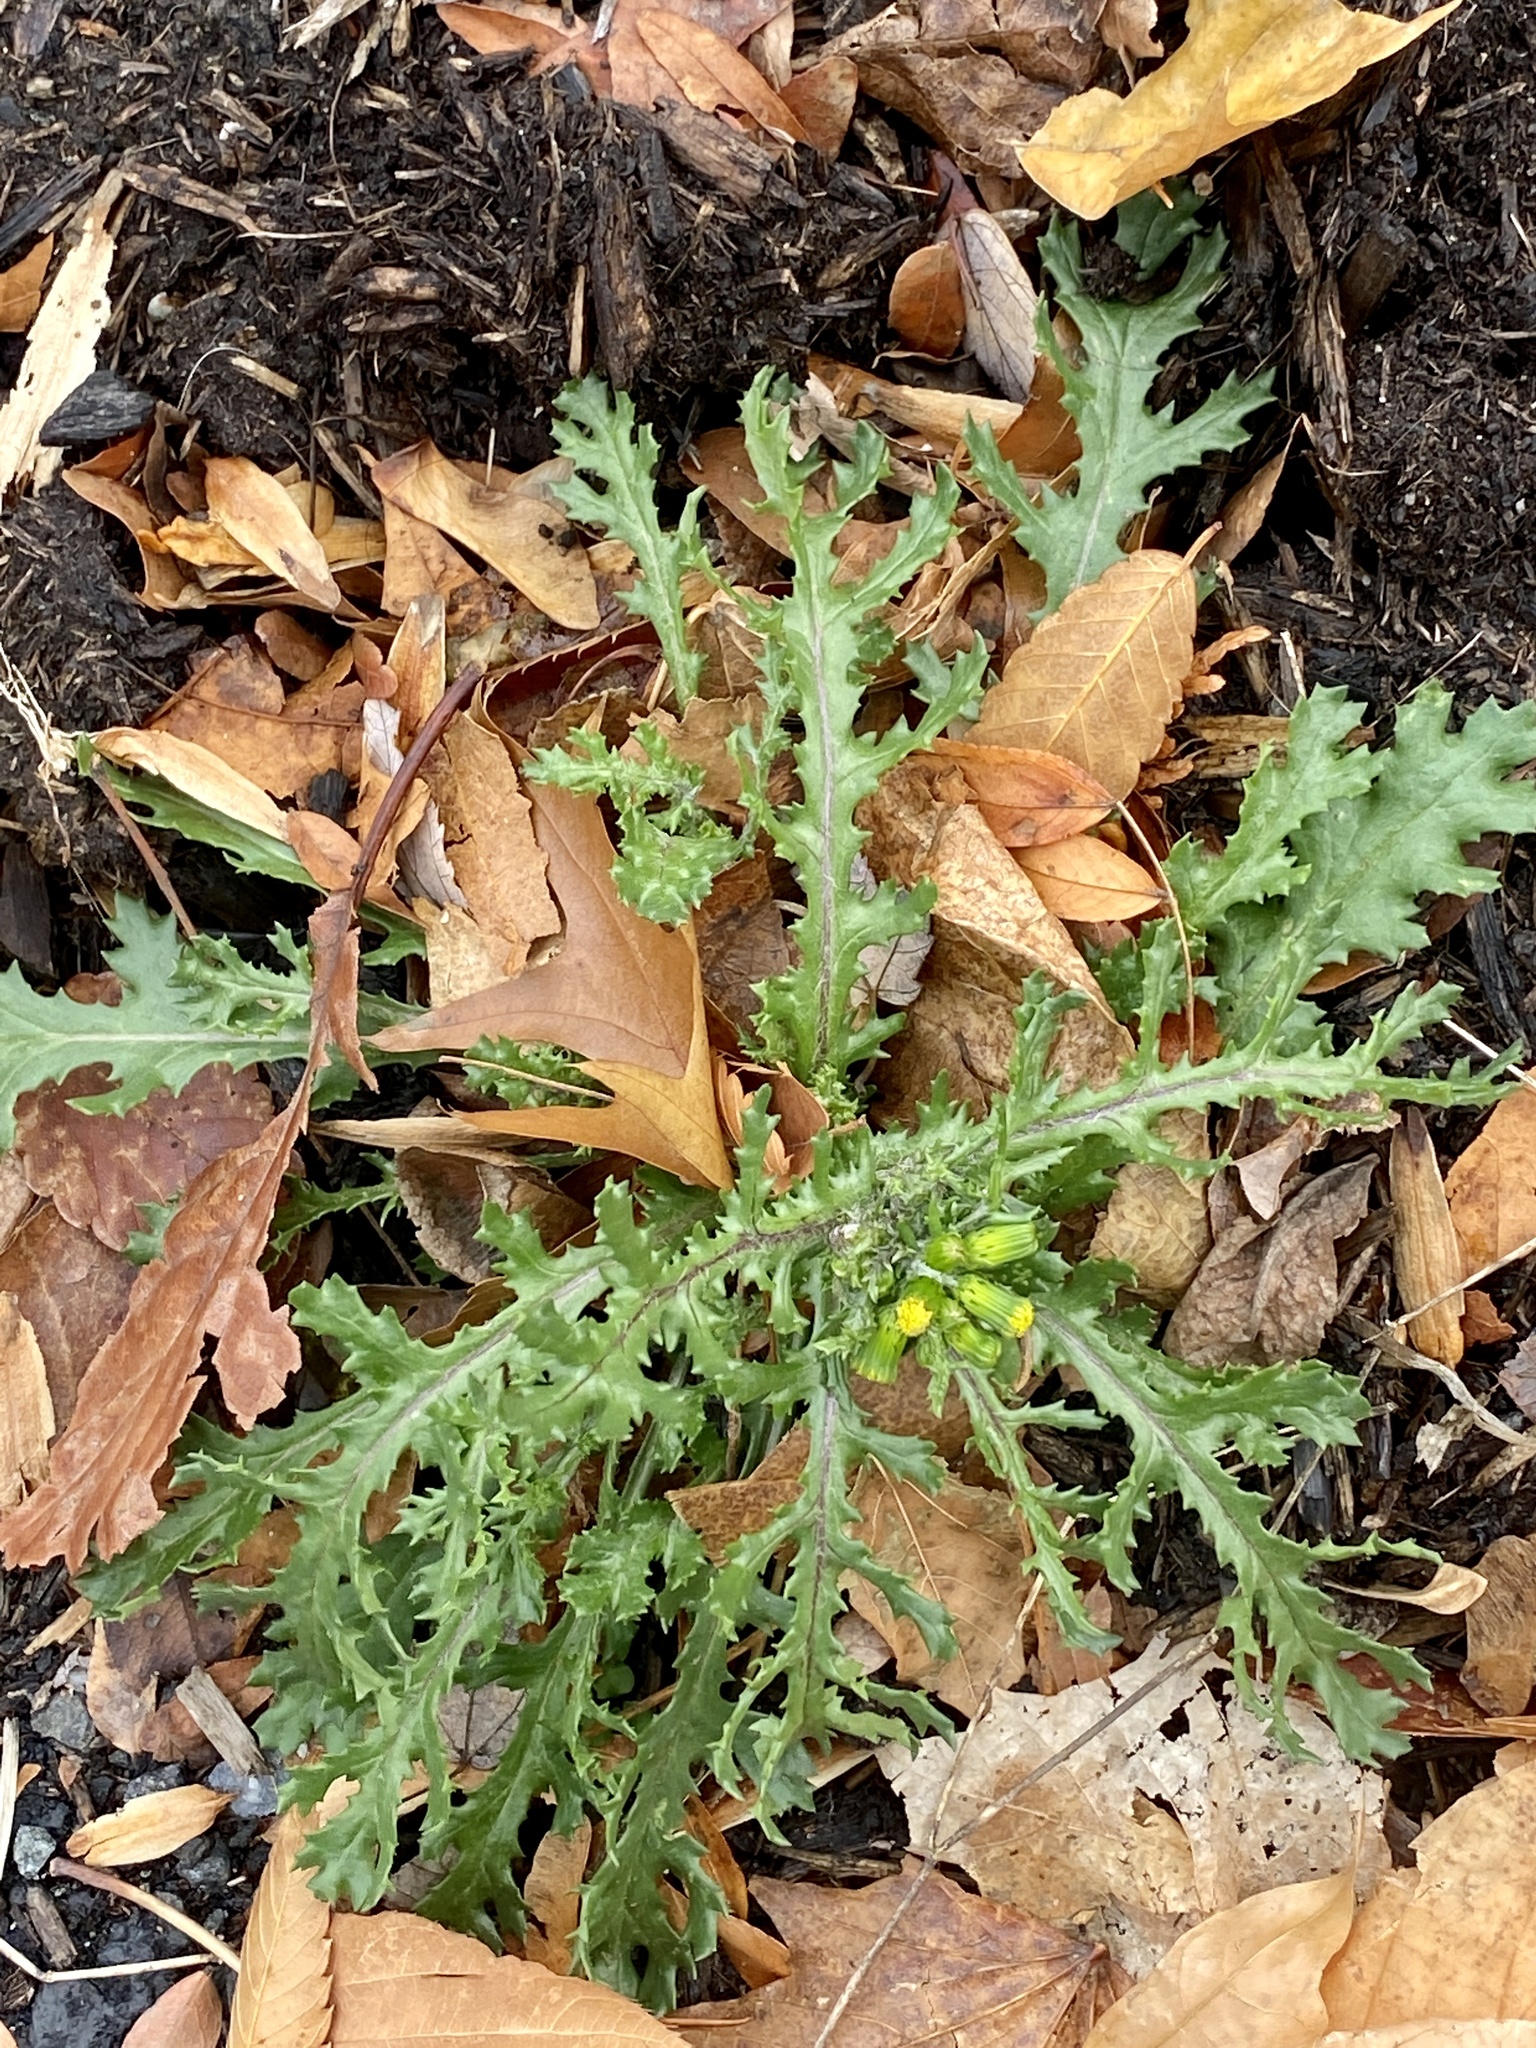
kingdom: Plantae
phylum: Tracheophyta
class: Magnoliopsida
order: Asterales
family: Asteraceae
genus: Senecio
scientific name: Senecio vulgaris
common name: Old-man-in-the-spring
